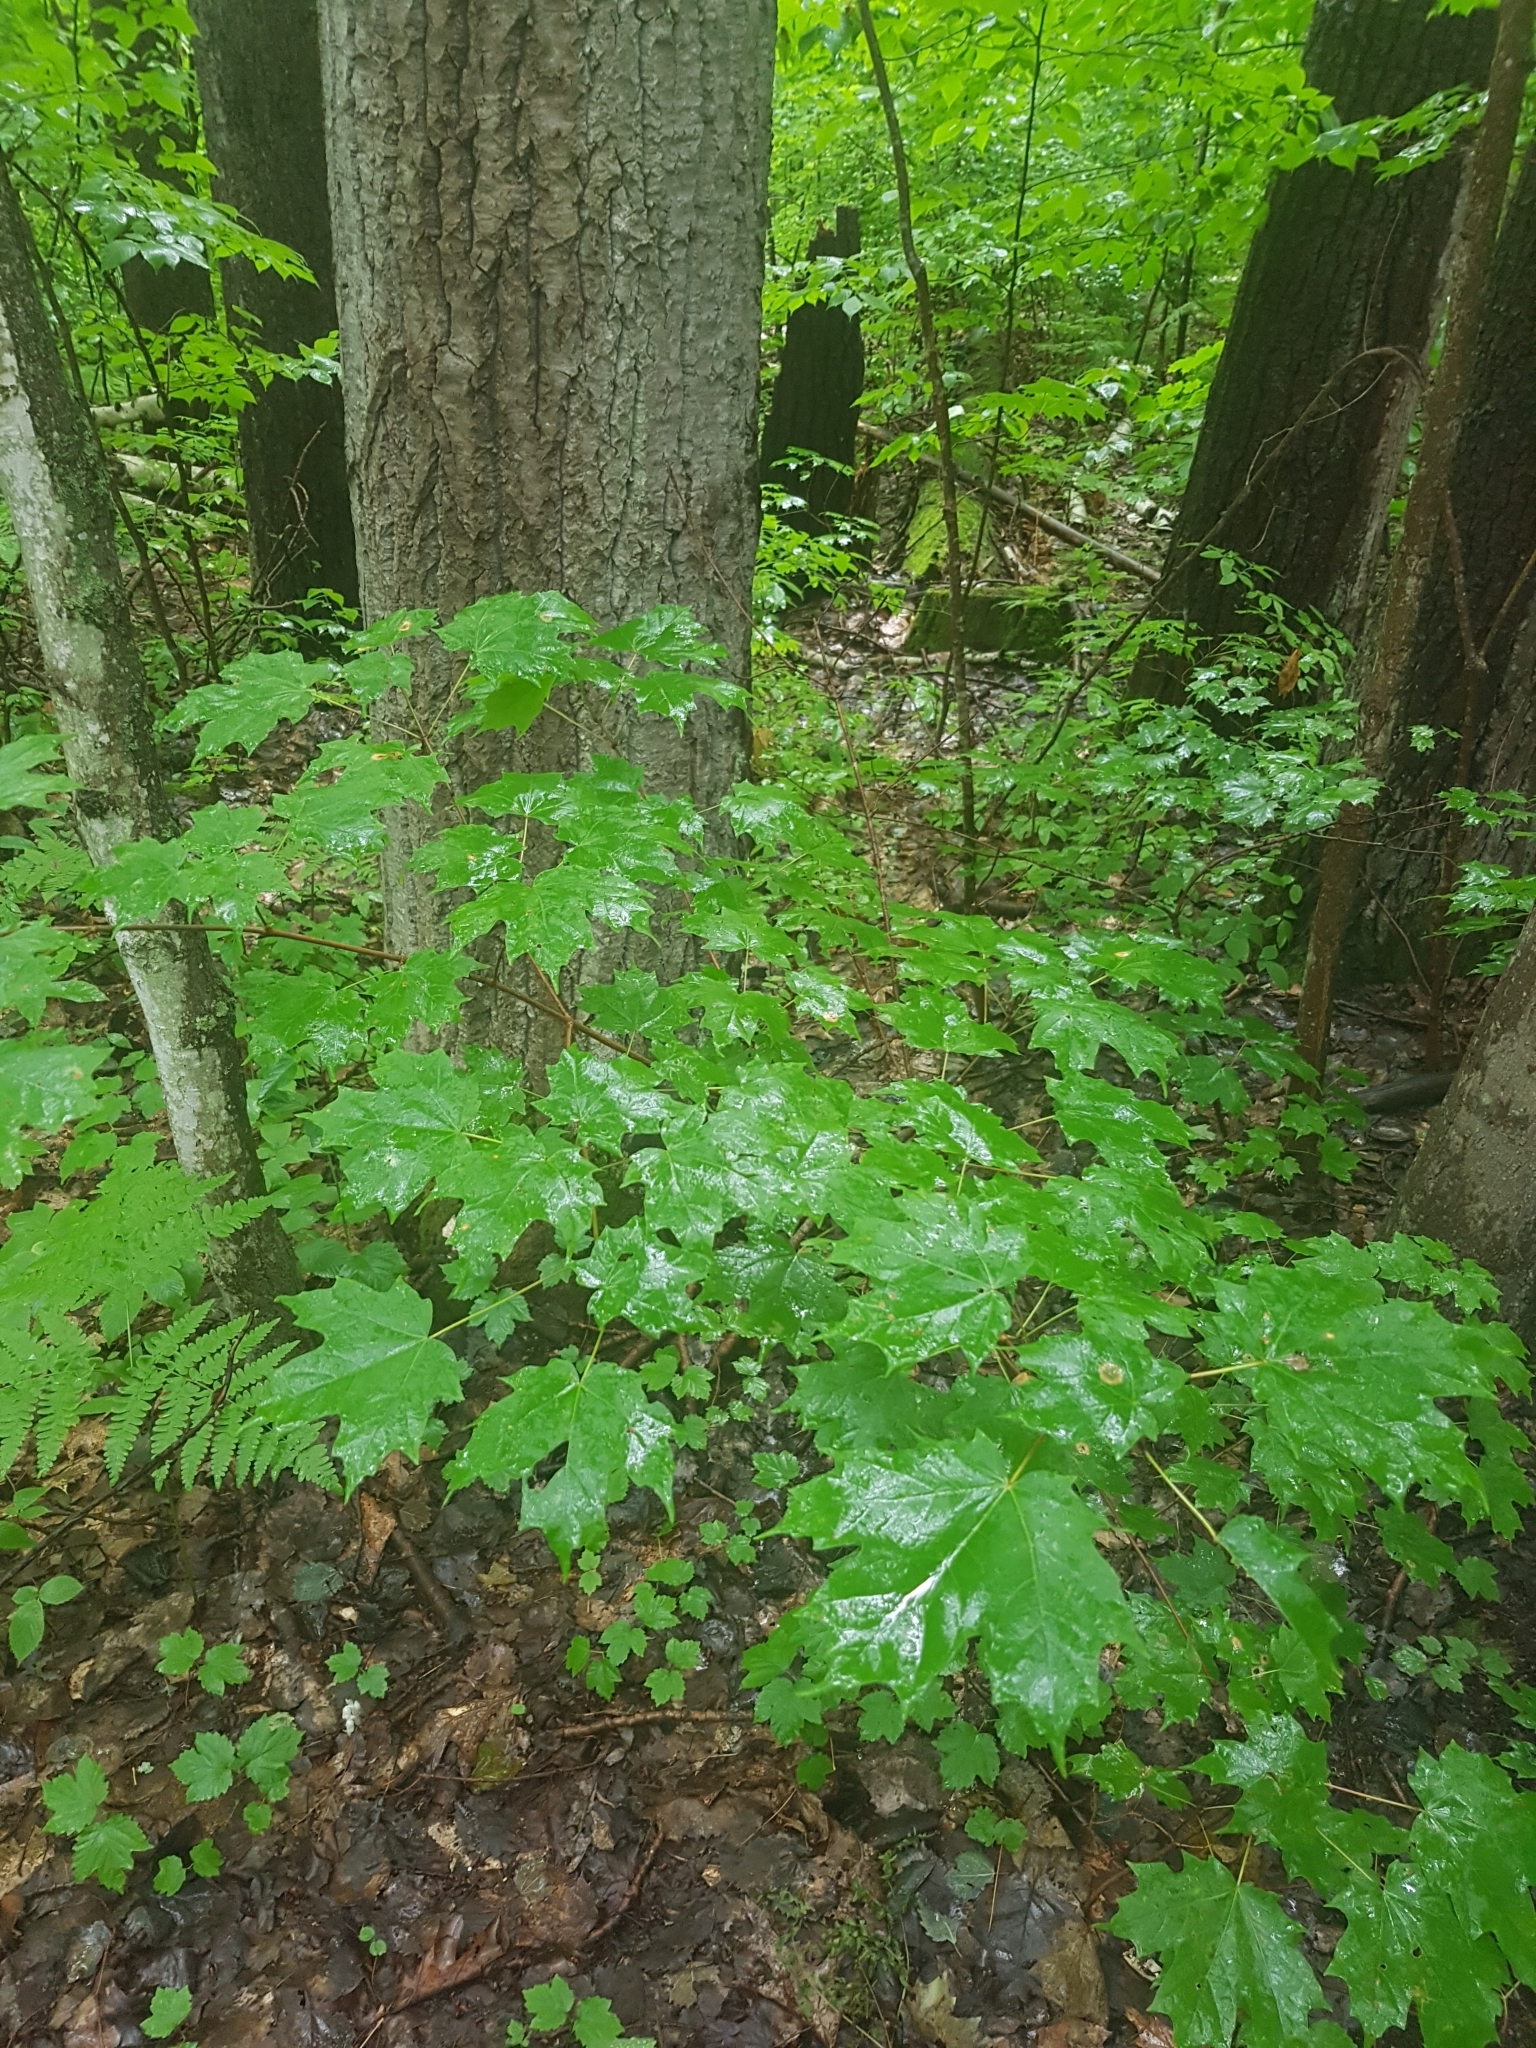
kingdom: Plantae
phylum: Tracheophyta
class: Magnoliopsida
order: Sapindales
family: Sapindaceae
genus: Acer
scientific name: Acer saccharum
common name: Sugar maple
